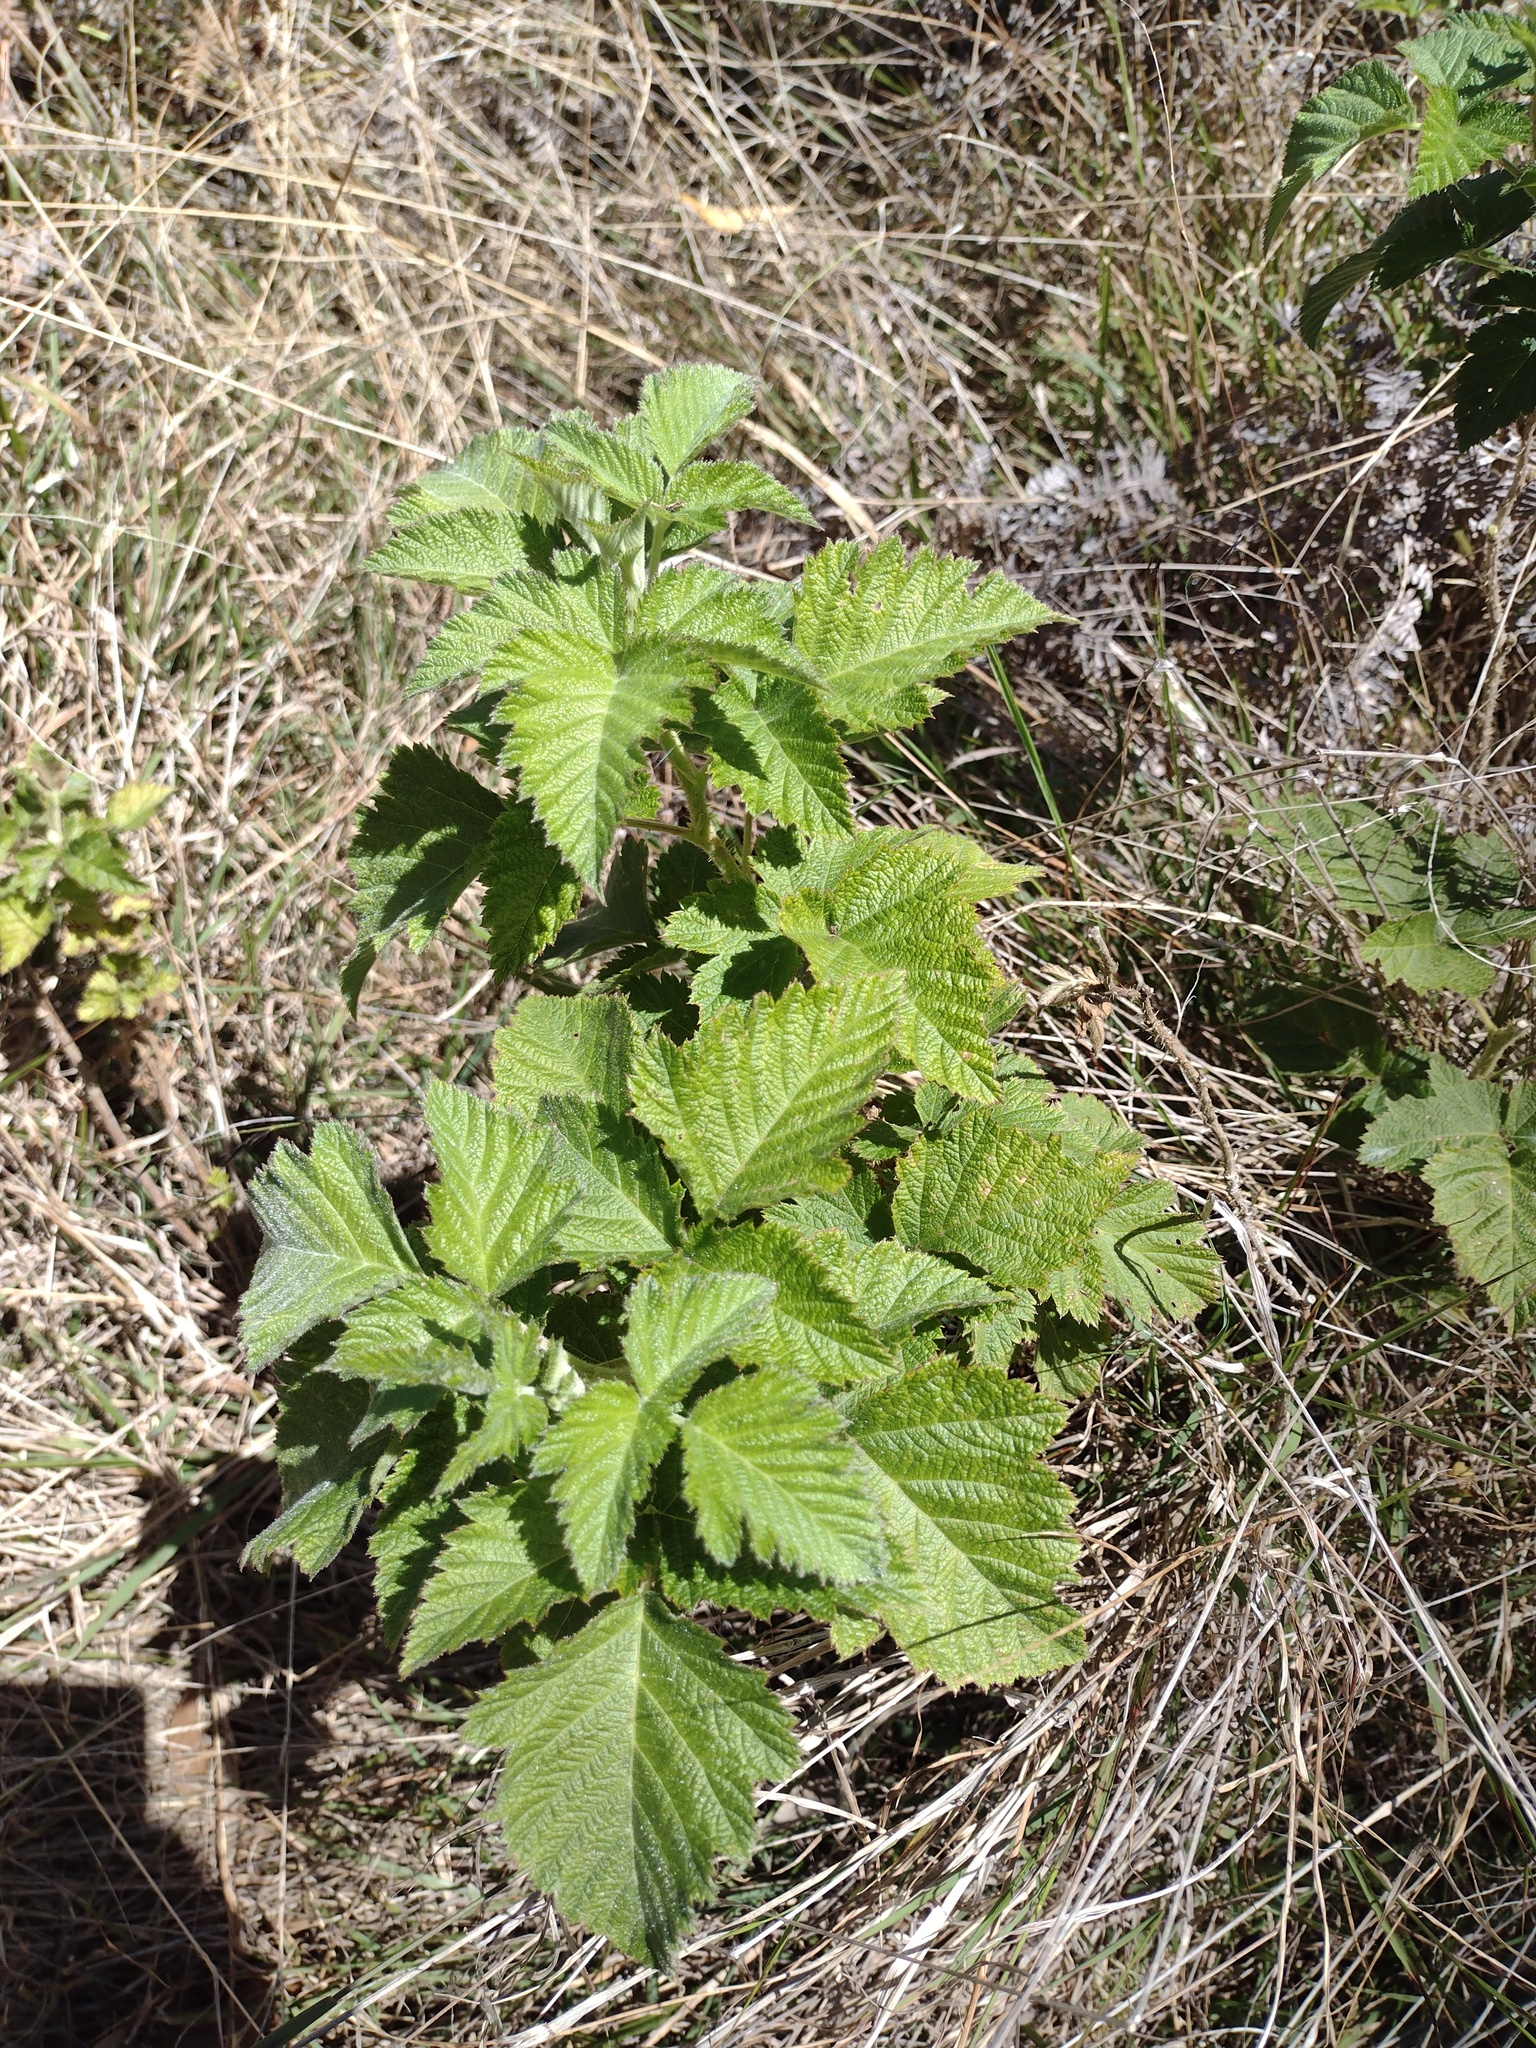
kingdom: Plantae
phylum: Tracheophyta
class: Magnoliopsida
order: Rosales
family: Rosaceae
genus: Rubus
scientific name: Rubus hawaiensis
